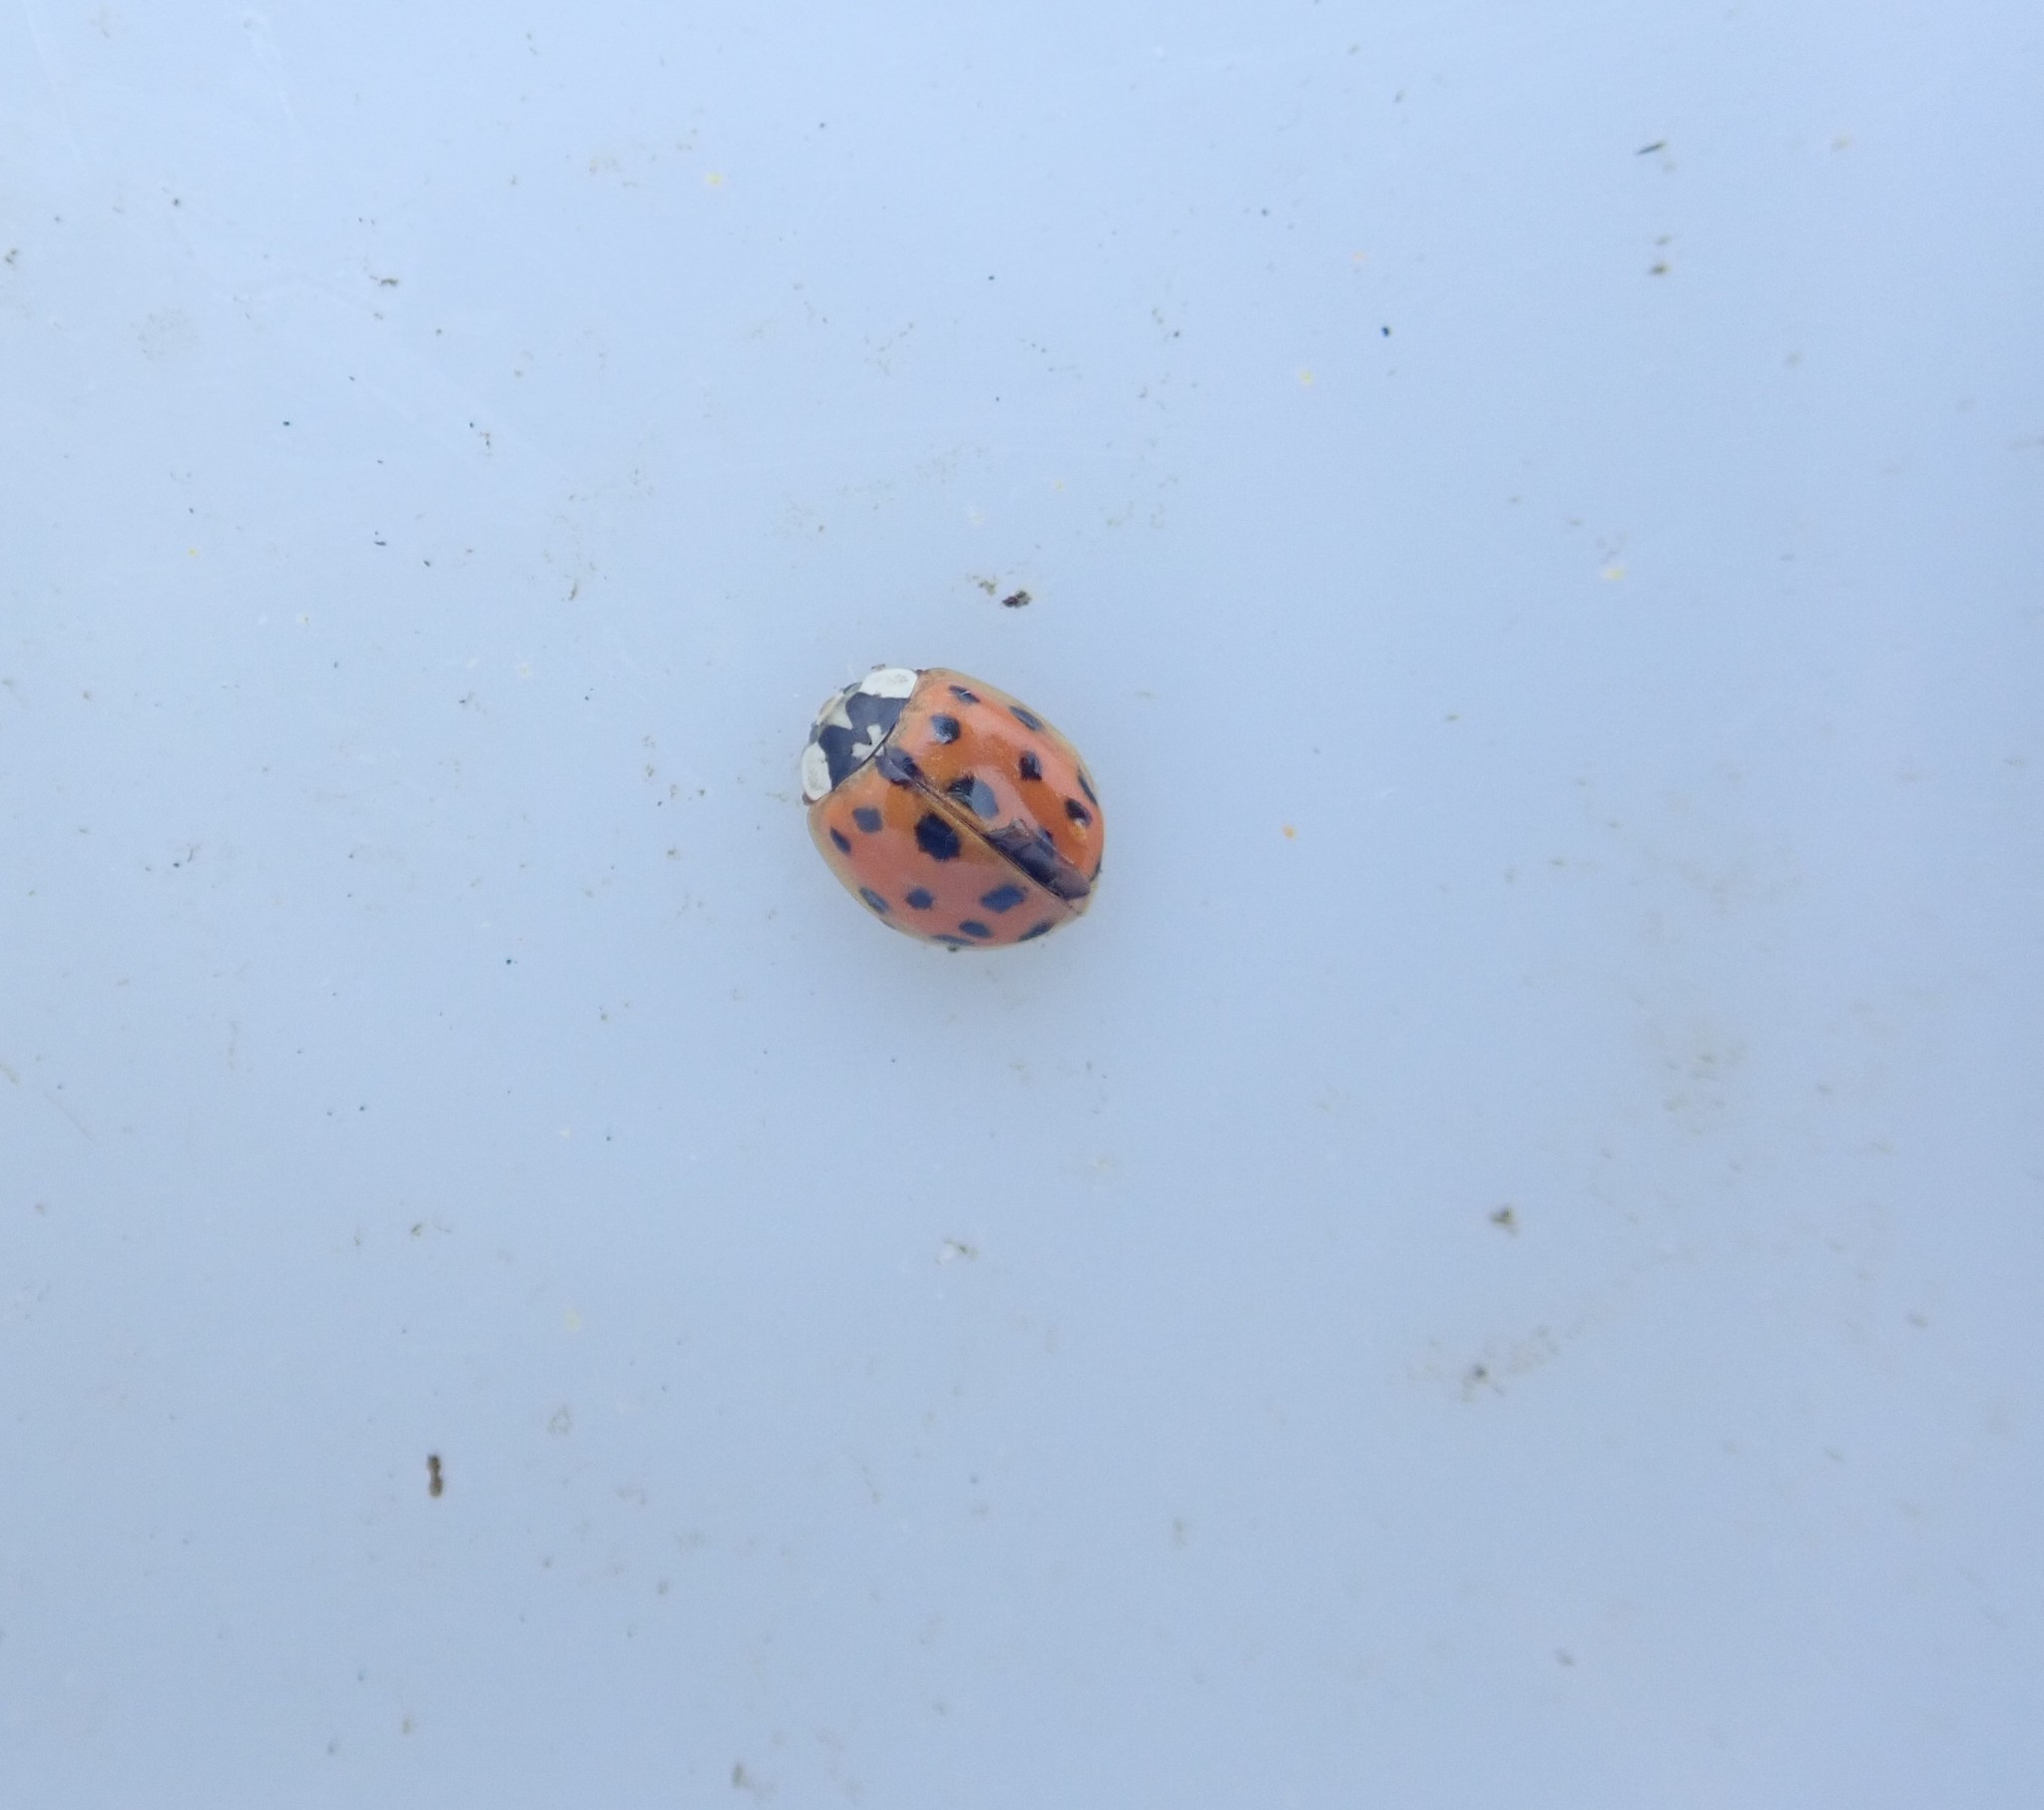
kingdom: Animalia
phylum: Arthropoda
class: Insecta
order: Coleoptera
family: Coccinellidae
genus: Harmonia
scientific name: Harmonia axyridis
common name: Harlequin ladybird
